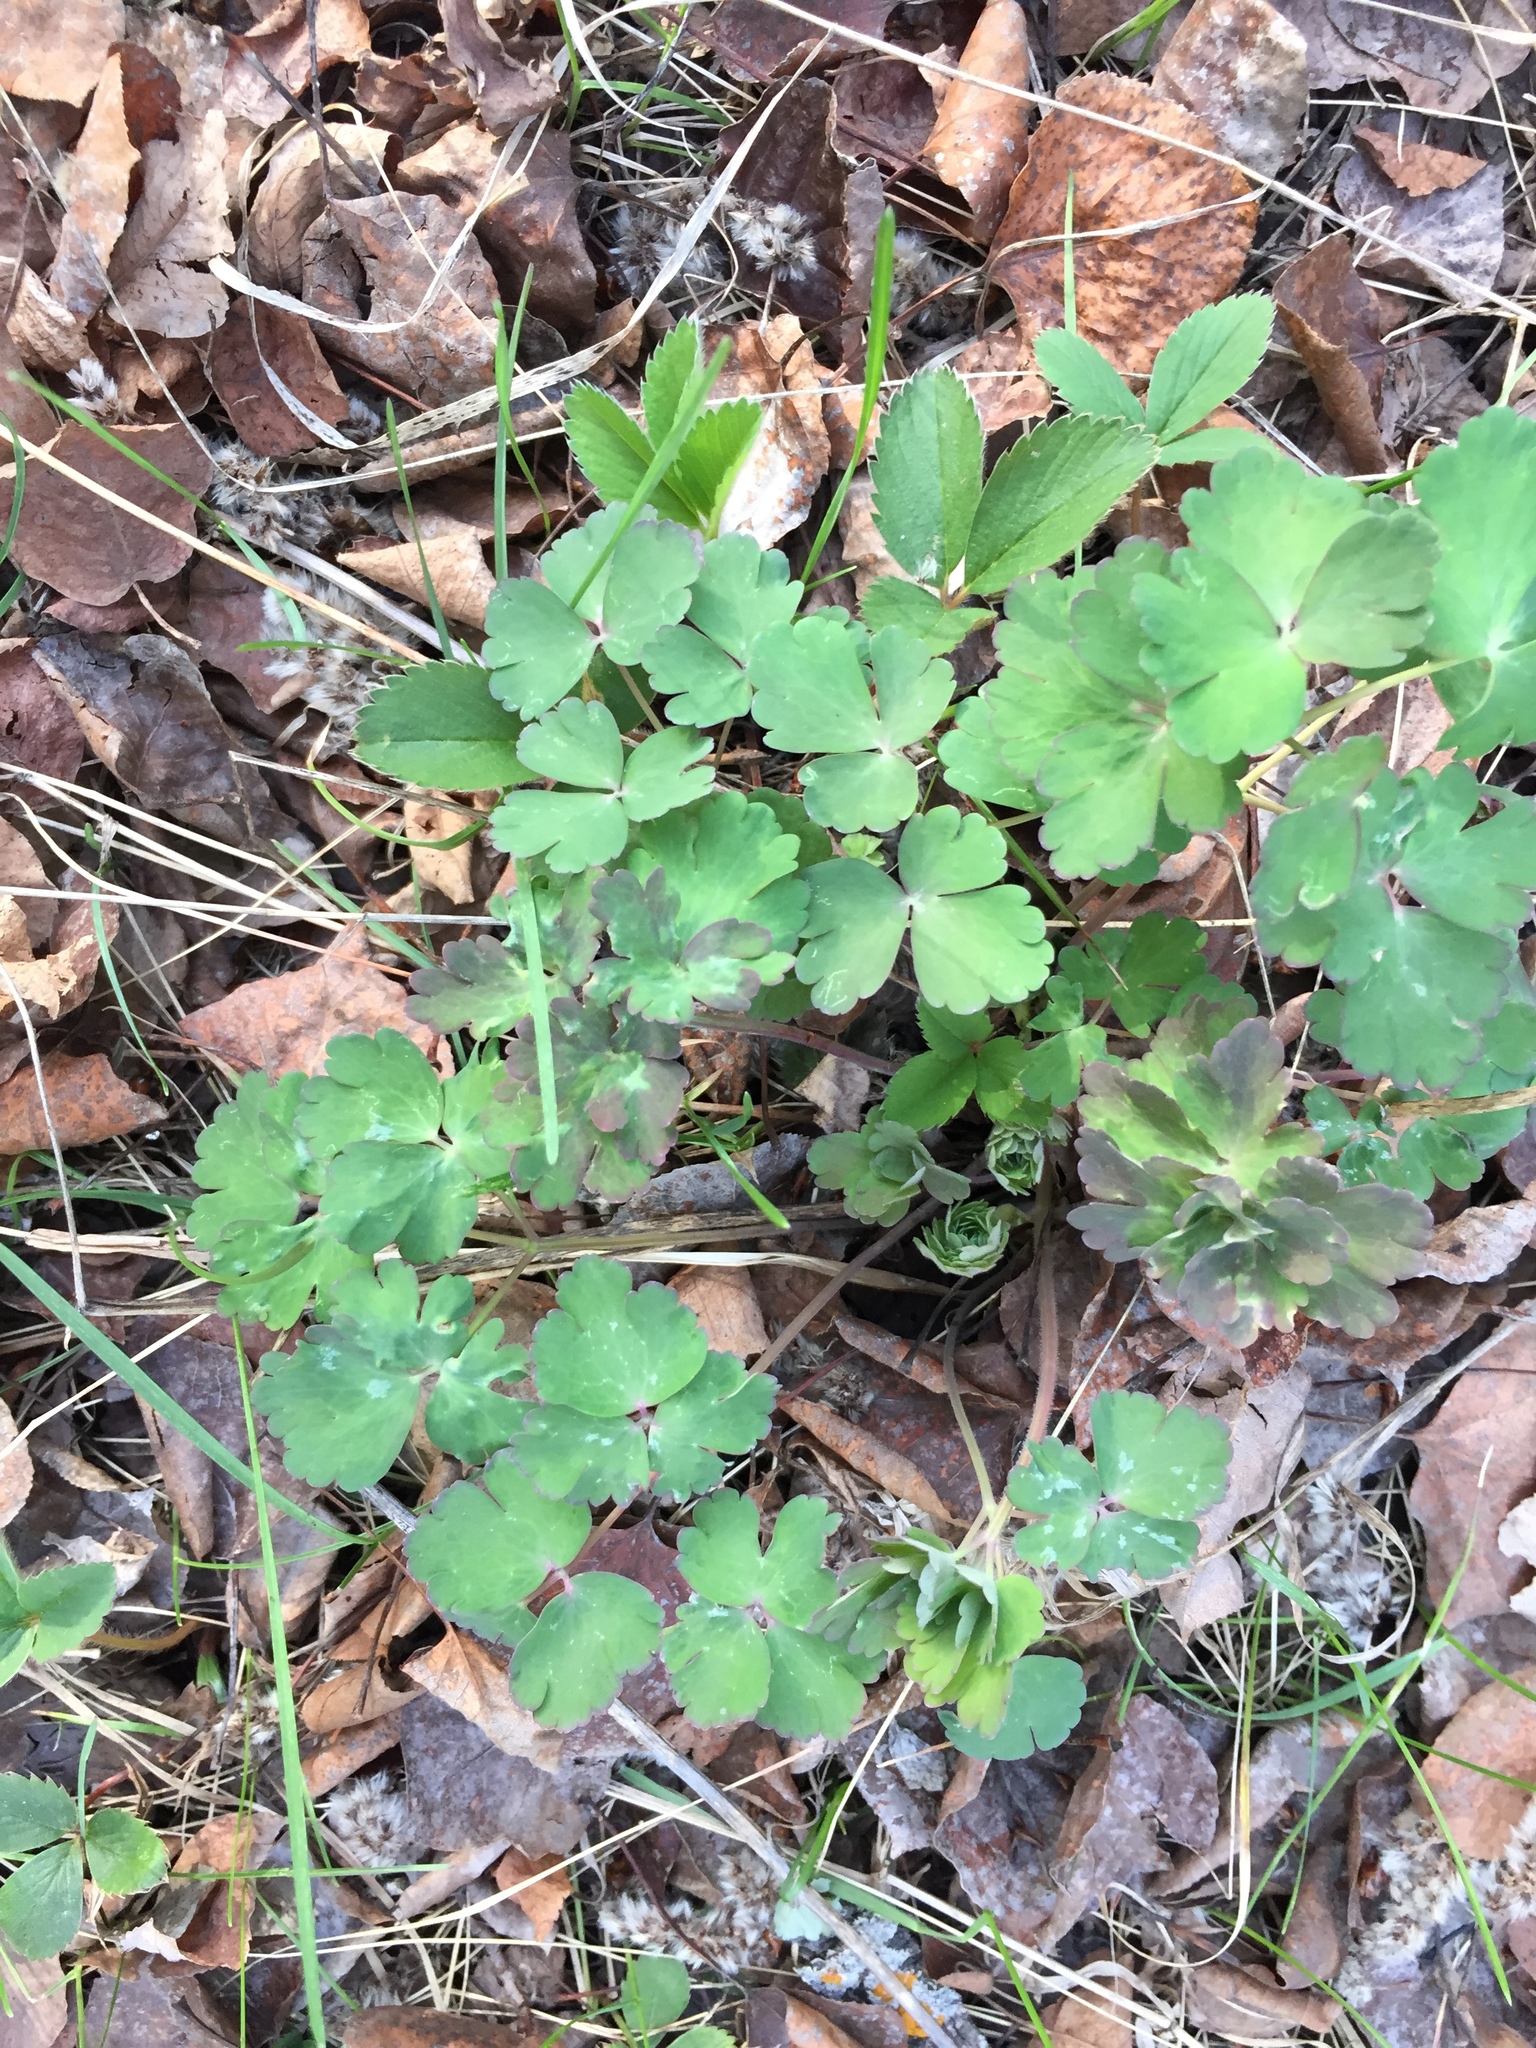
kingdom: Plantae
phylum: Tracheophyta
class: Magnoliopsida
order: Ranunculales
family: Ranunculaceae
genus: Aquilegia
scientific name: Aquilegia canadensis
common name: American columbine
